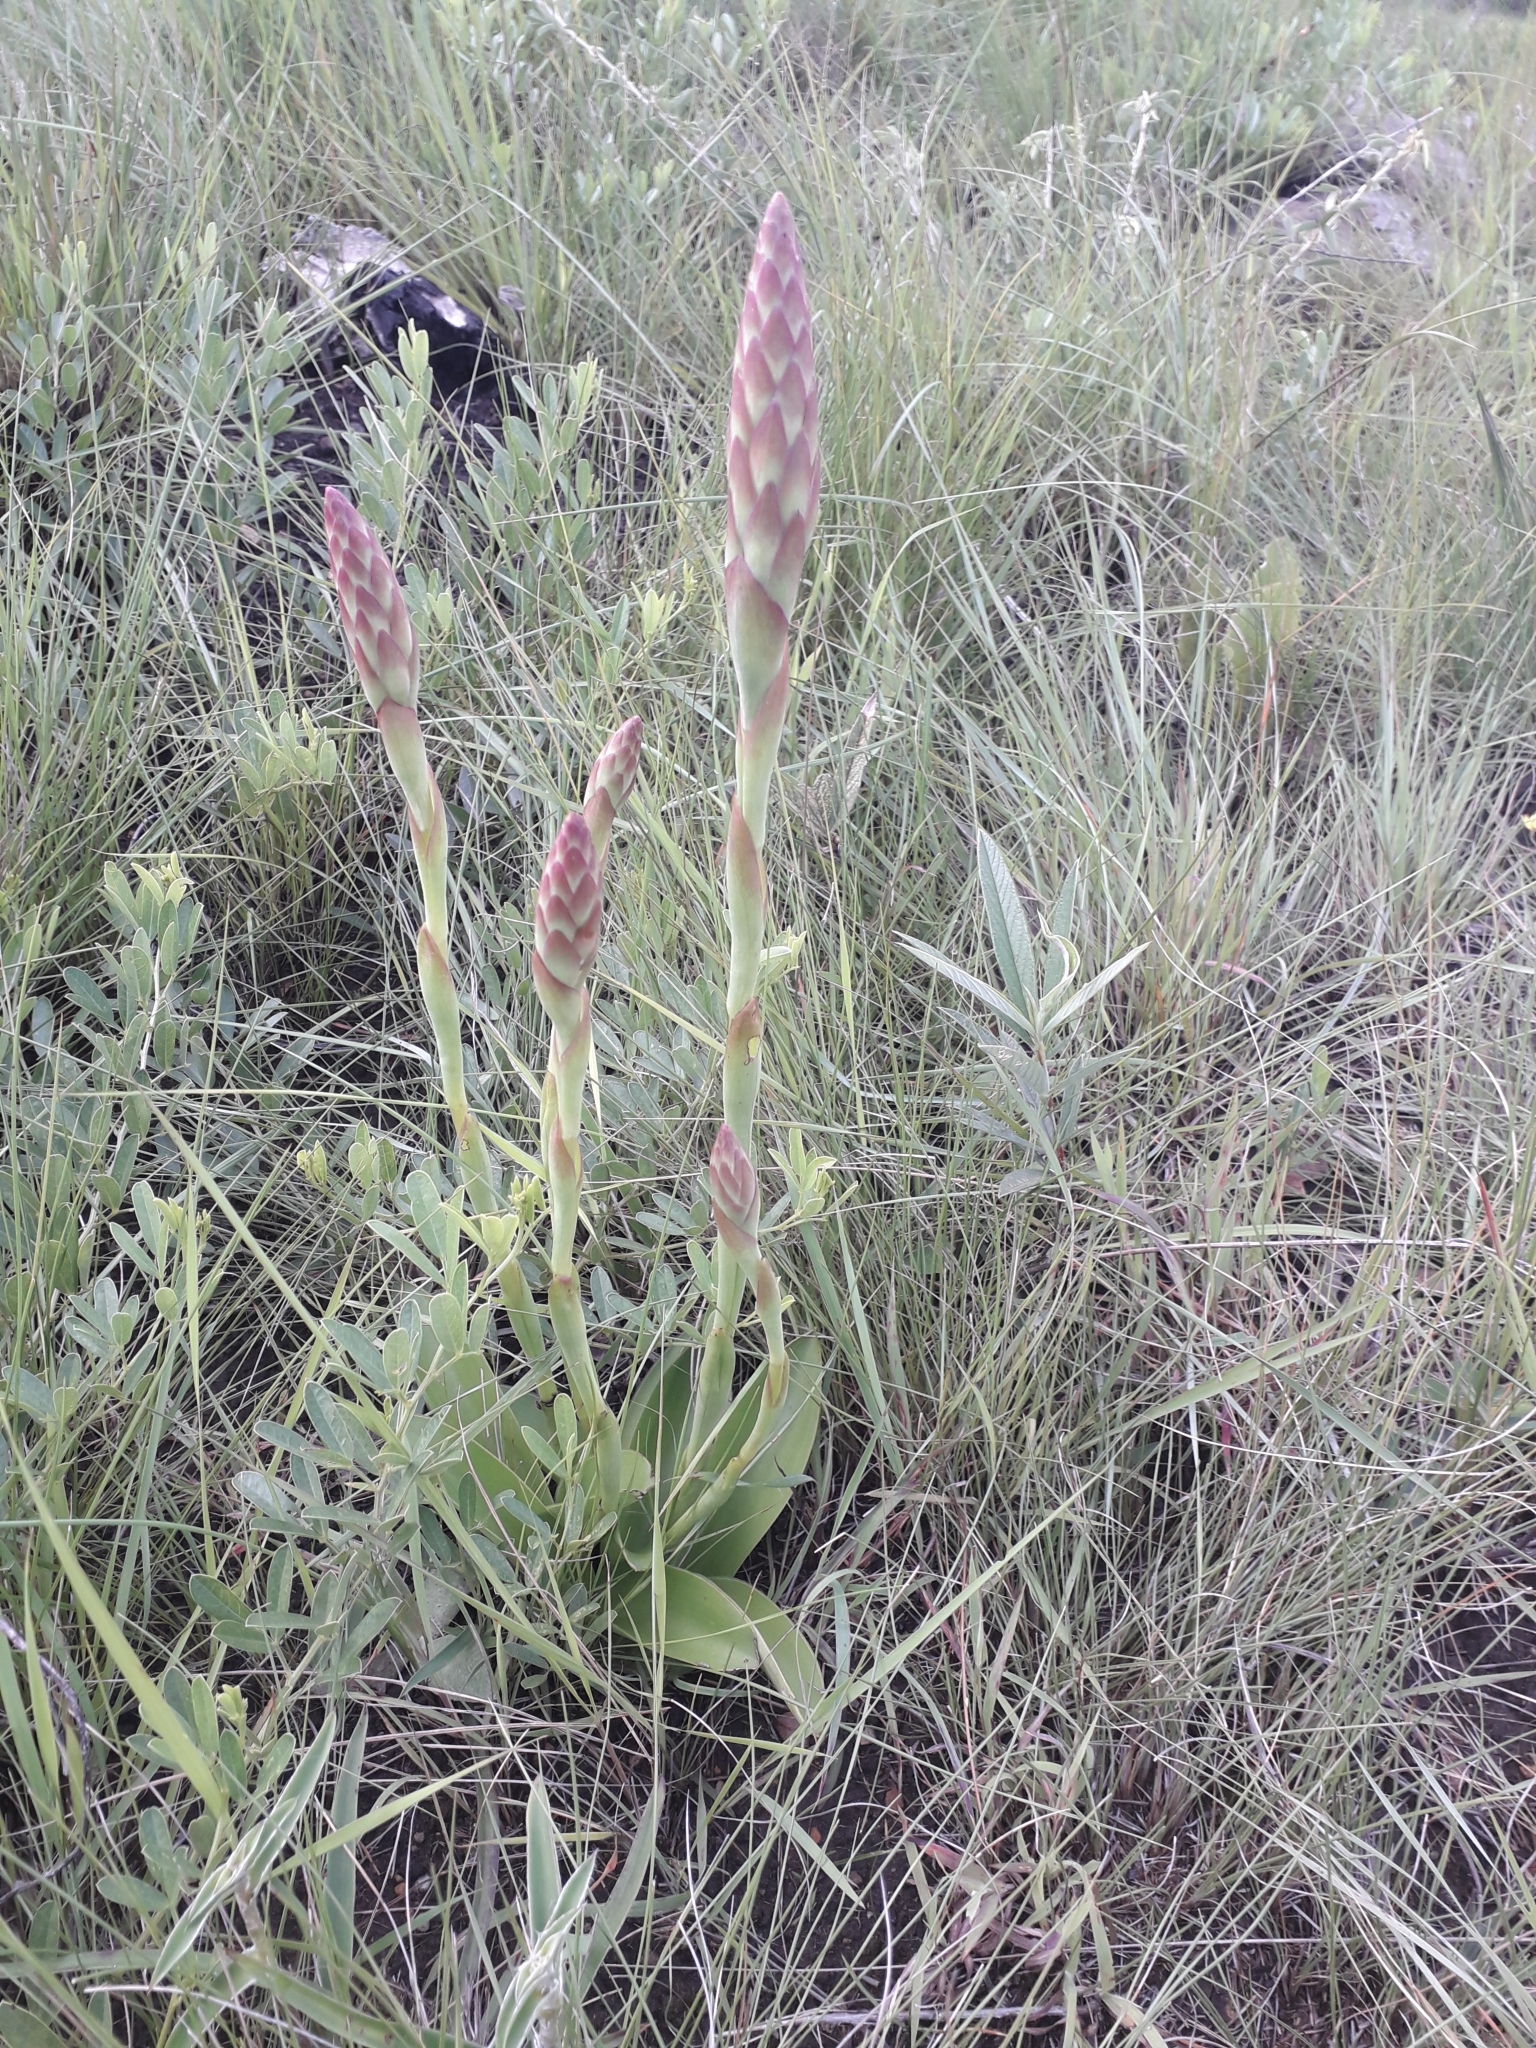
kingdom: Plantae
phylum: Tracheophyta
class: Liliopsida
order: Asparagales
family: Orchidaceae
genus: Satyrium
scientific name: Satyrium longicauda
